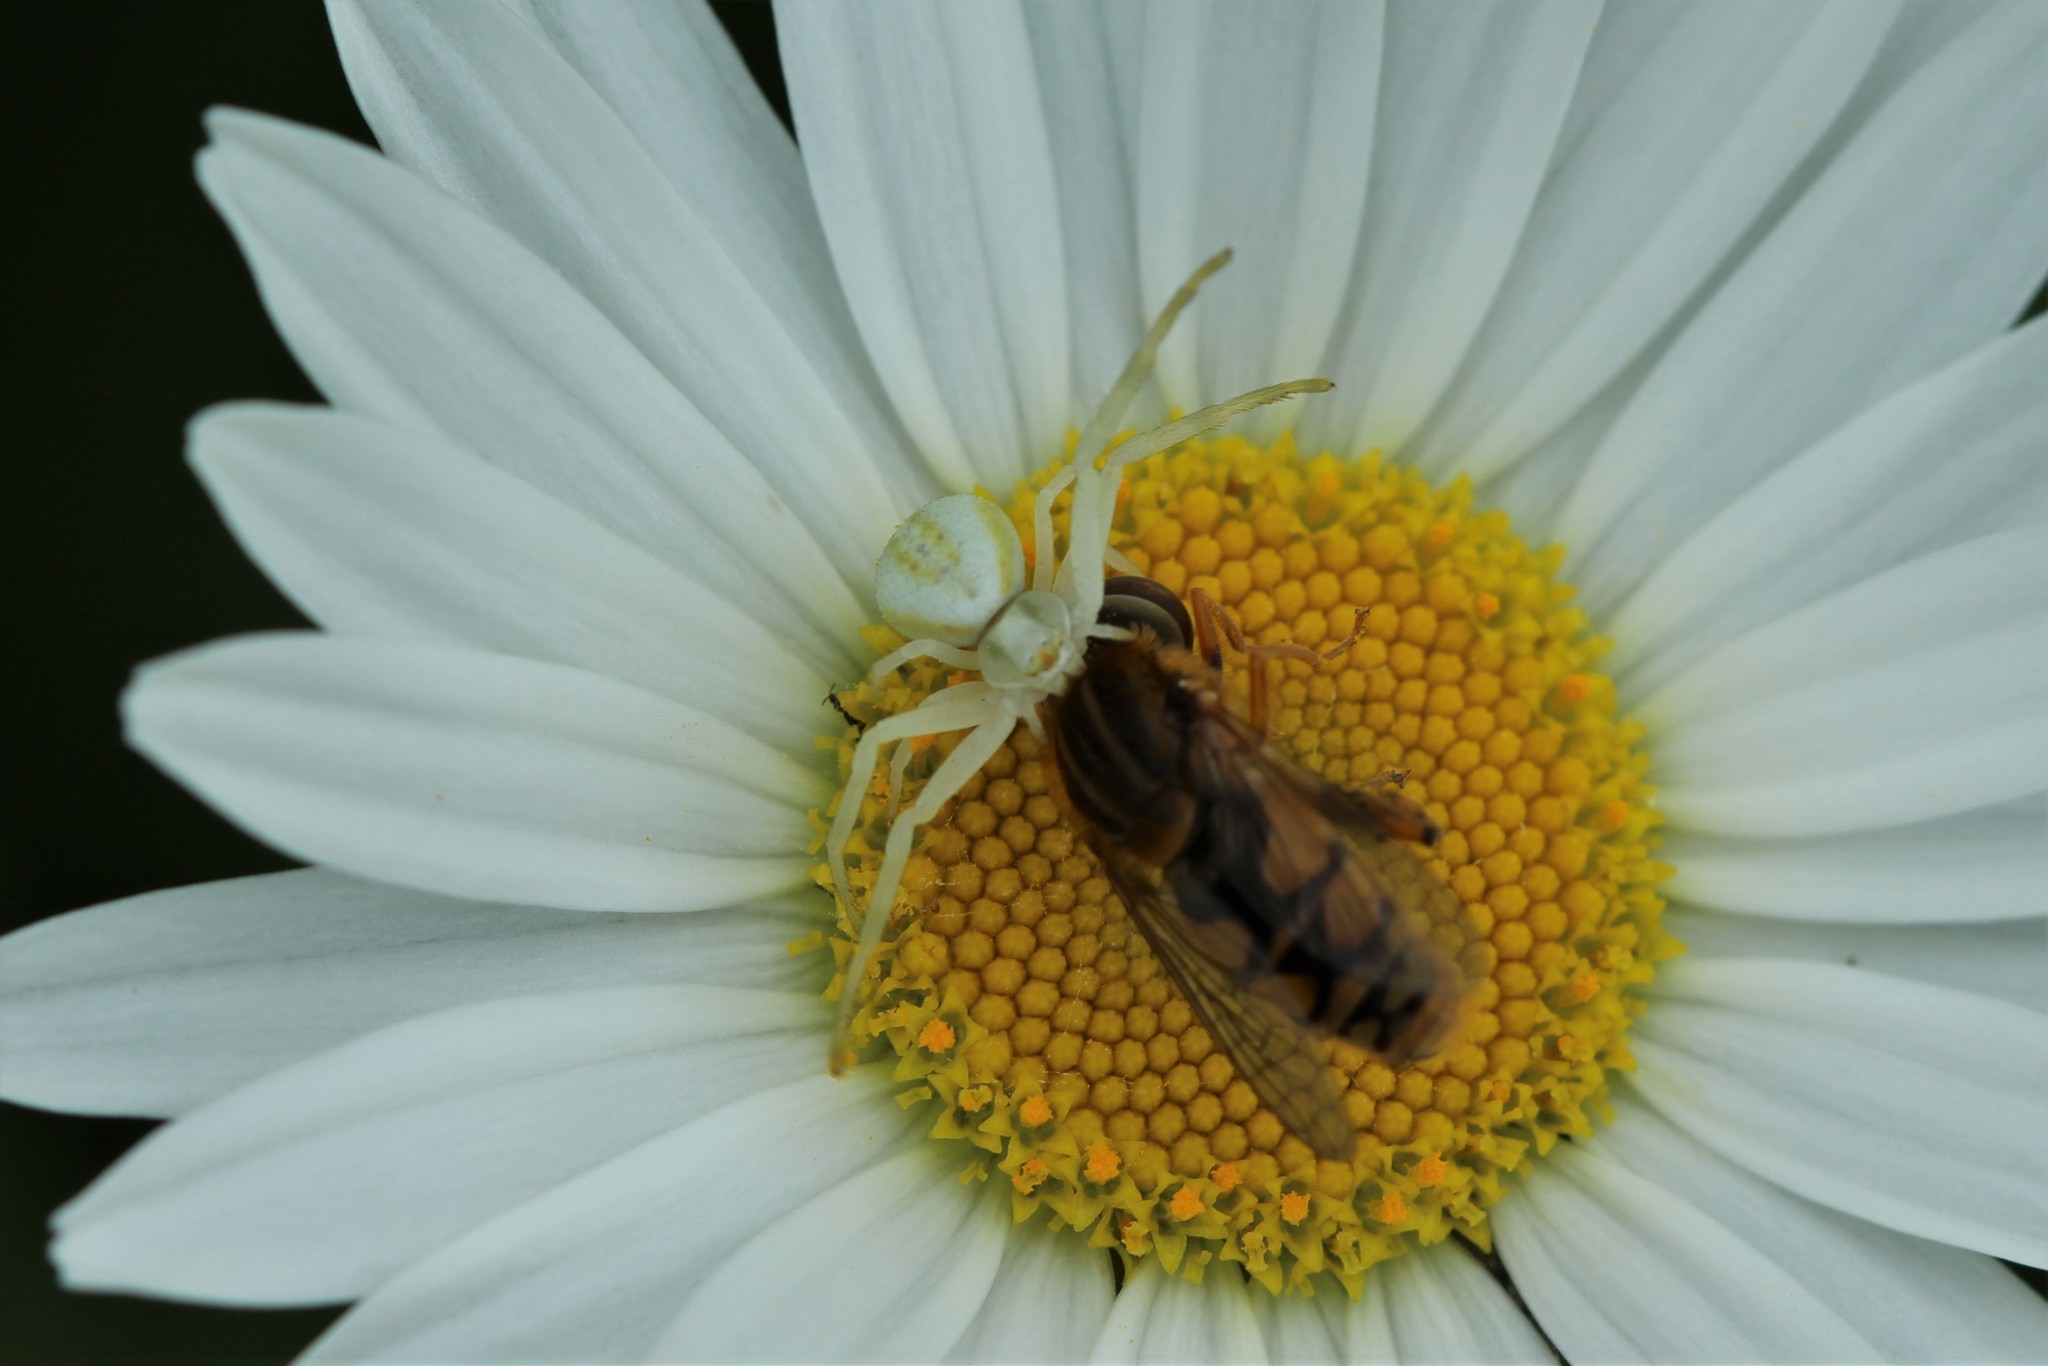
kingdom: Animalia
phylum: Arthropoda
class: Arachnida
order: Araneae
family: Thomisidae
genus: Misumena
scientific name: Misumena vatia
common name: Goldenrod crab spider
